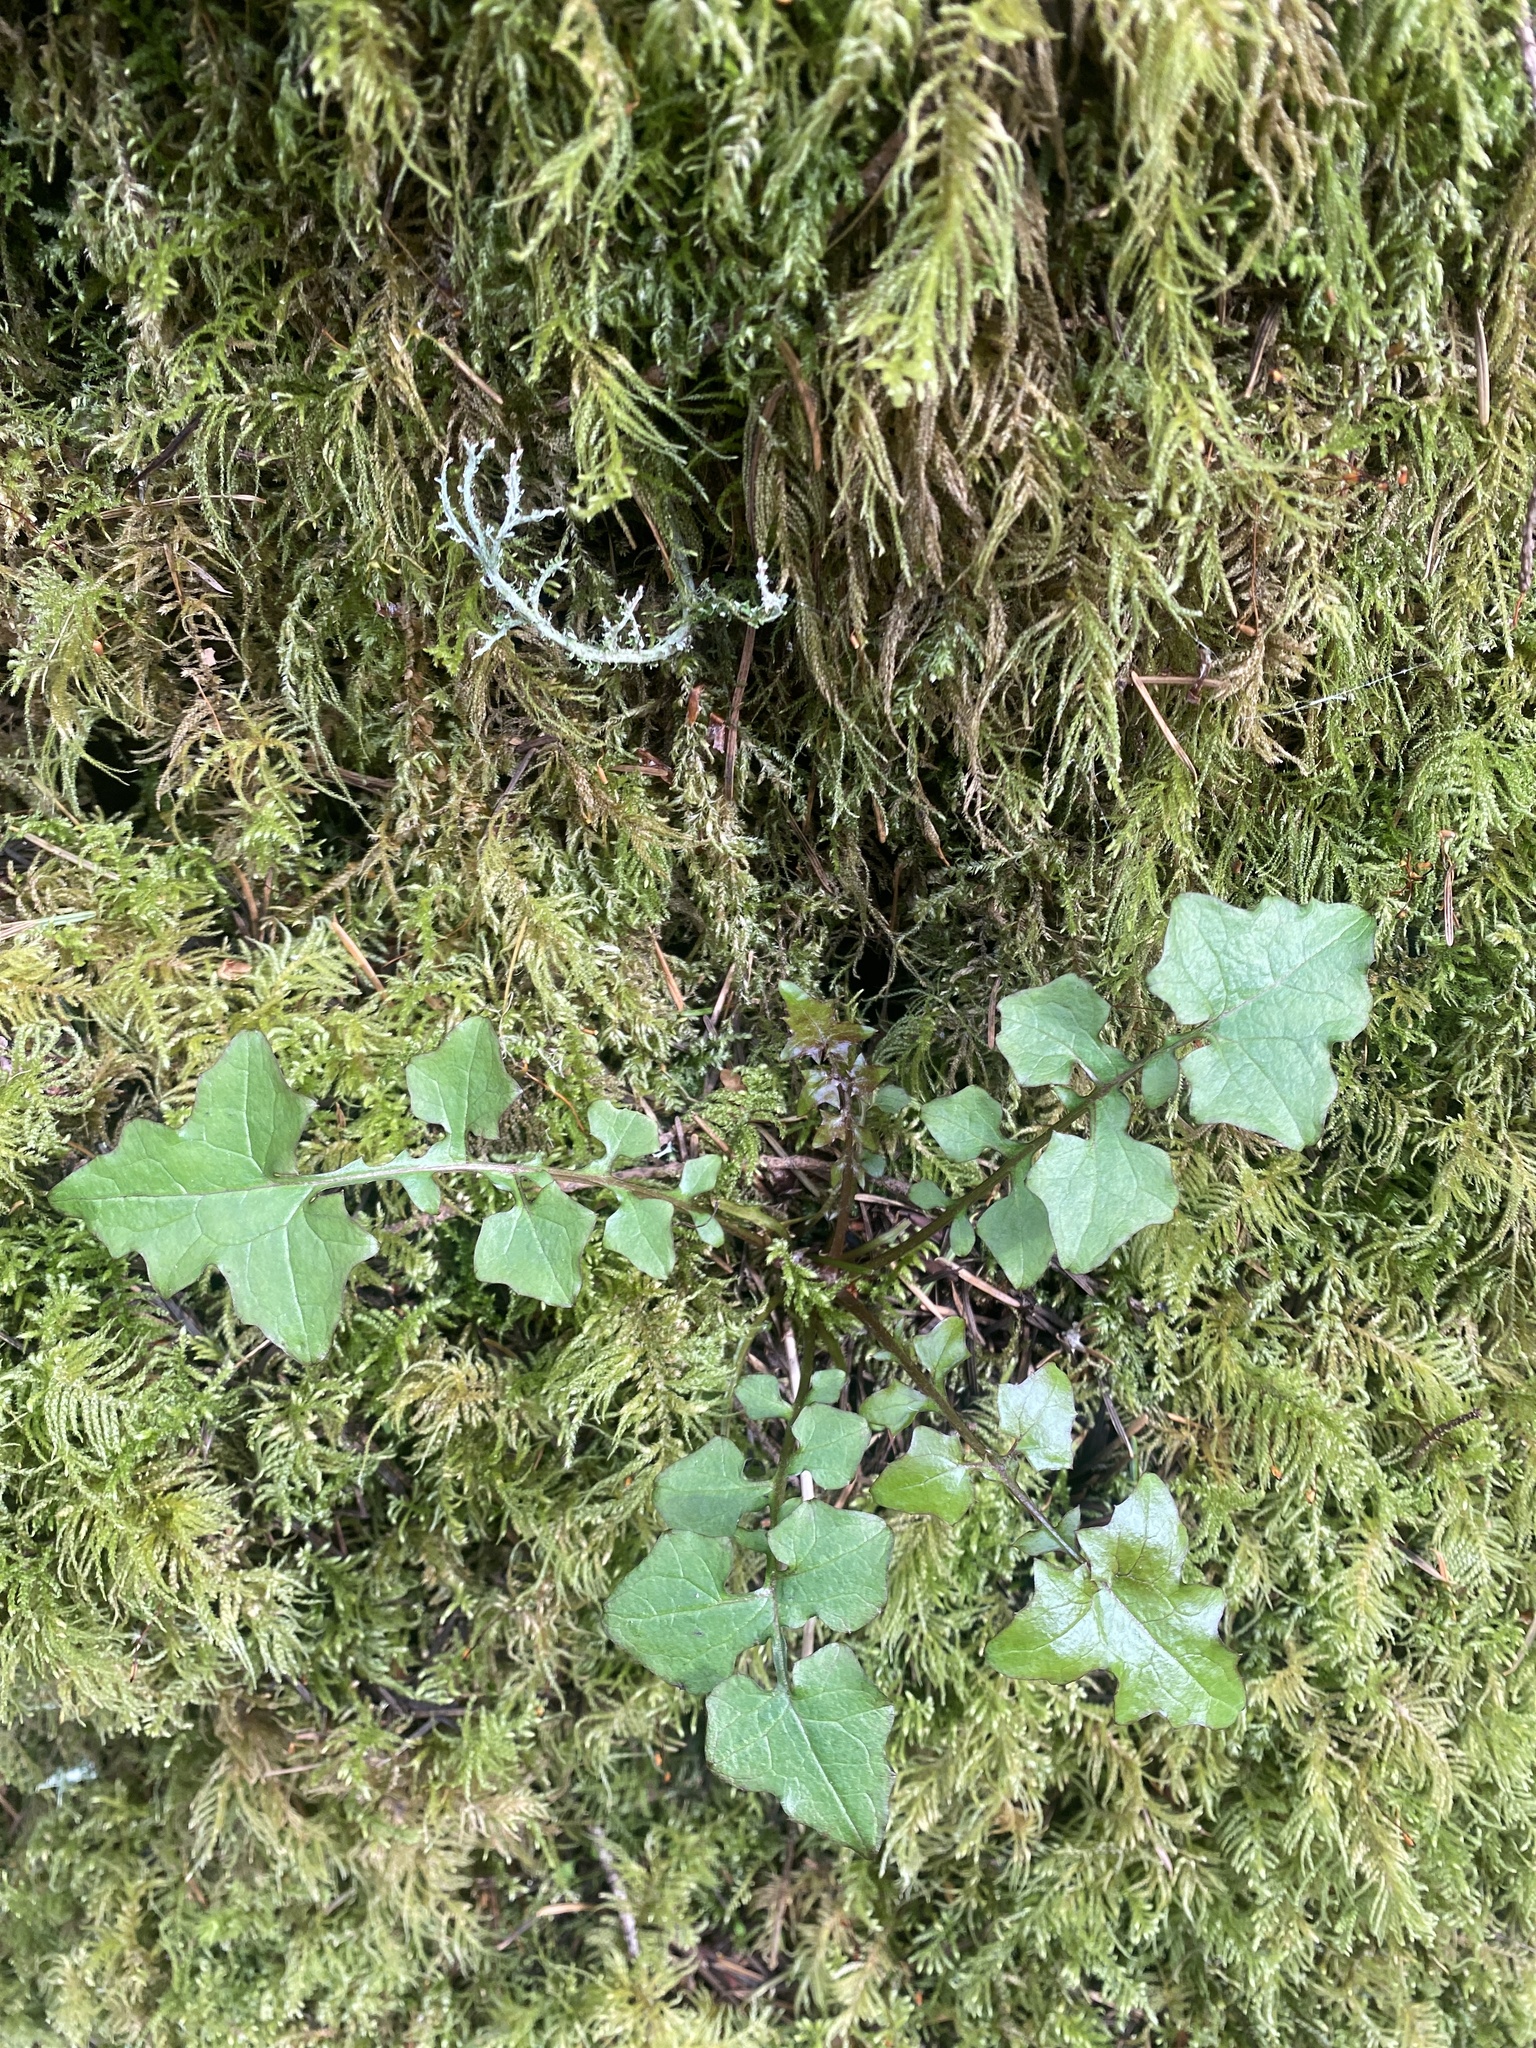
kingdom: Plantae
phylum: Tracheophyta
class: Magnoliopsida
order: Asterales
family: Asteraceae
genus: Mycelis
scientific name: Mycelis muralis
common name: Wall lettuce
